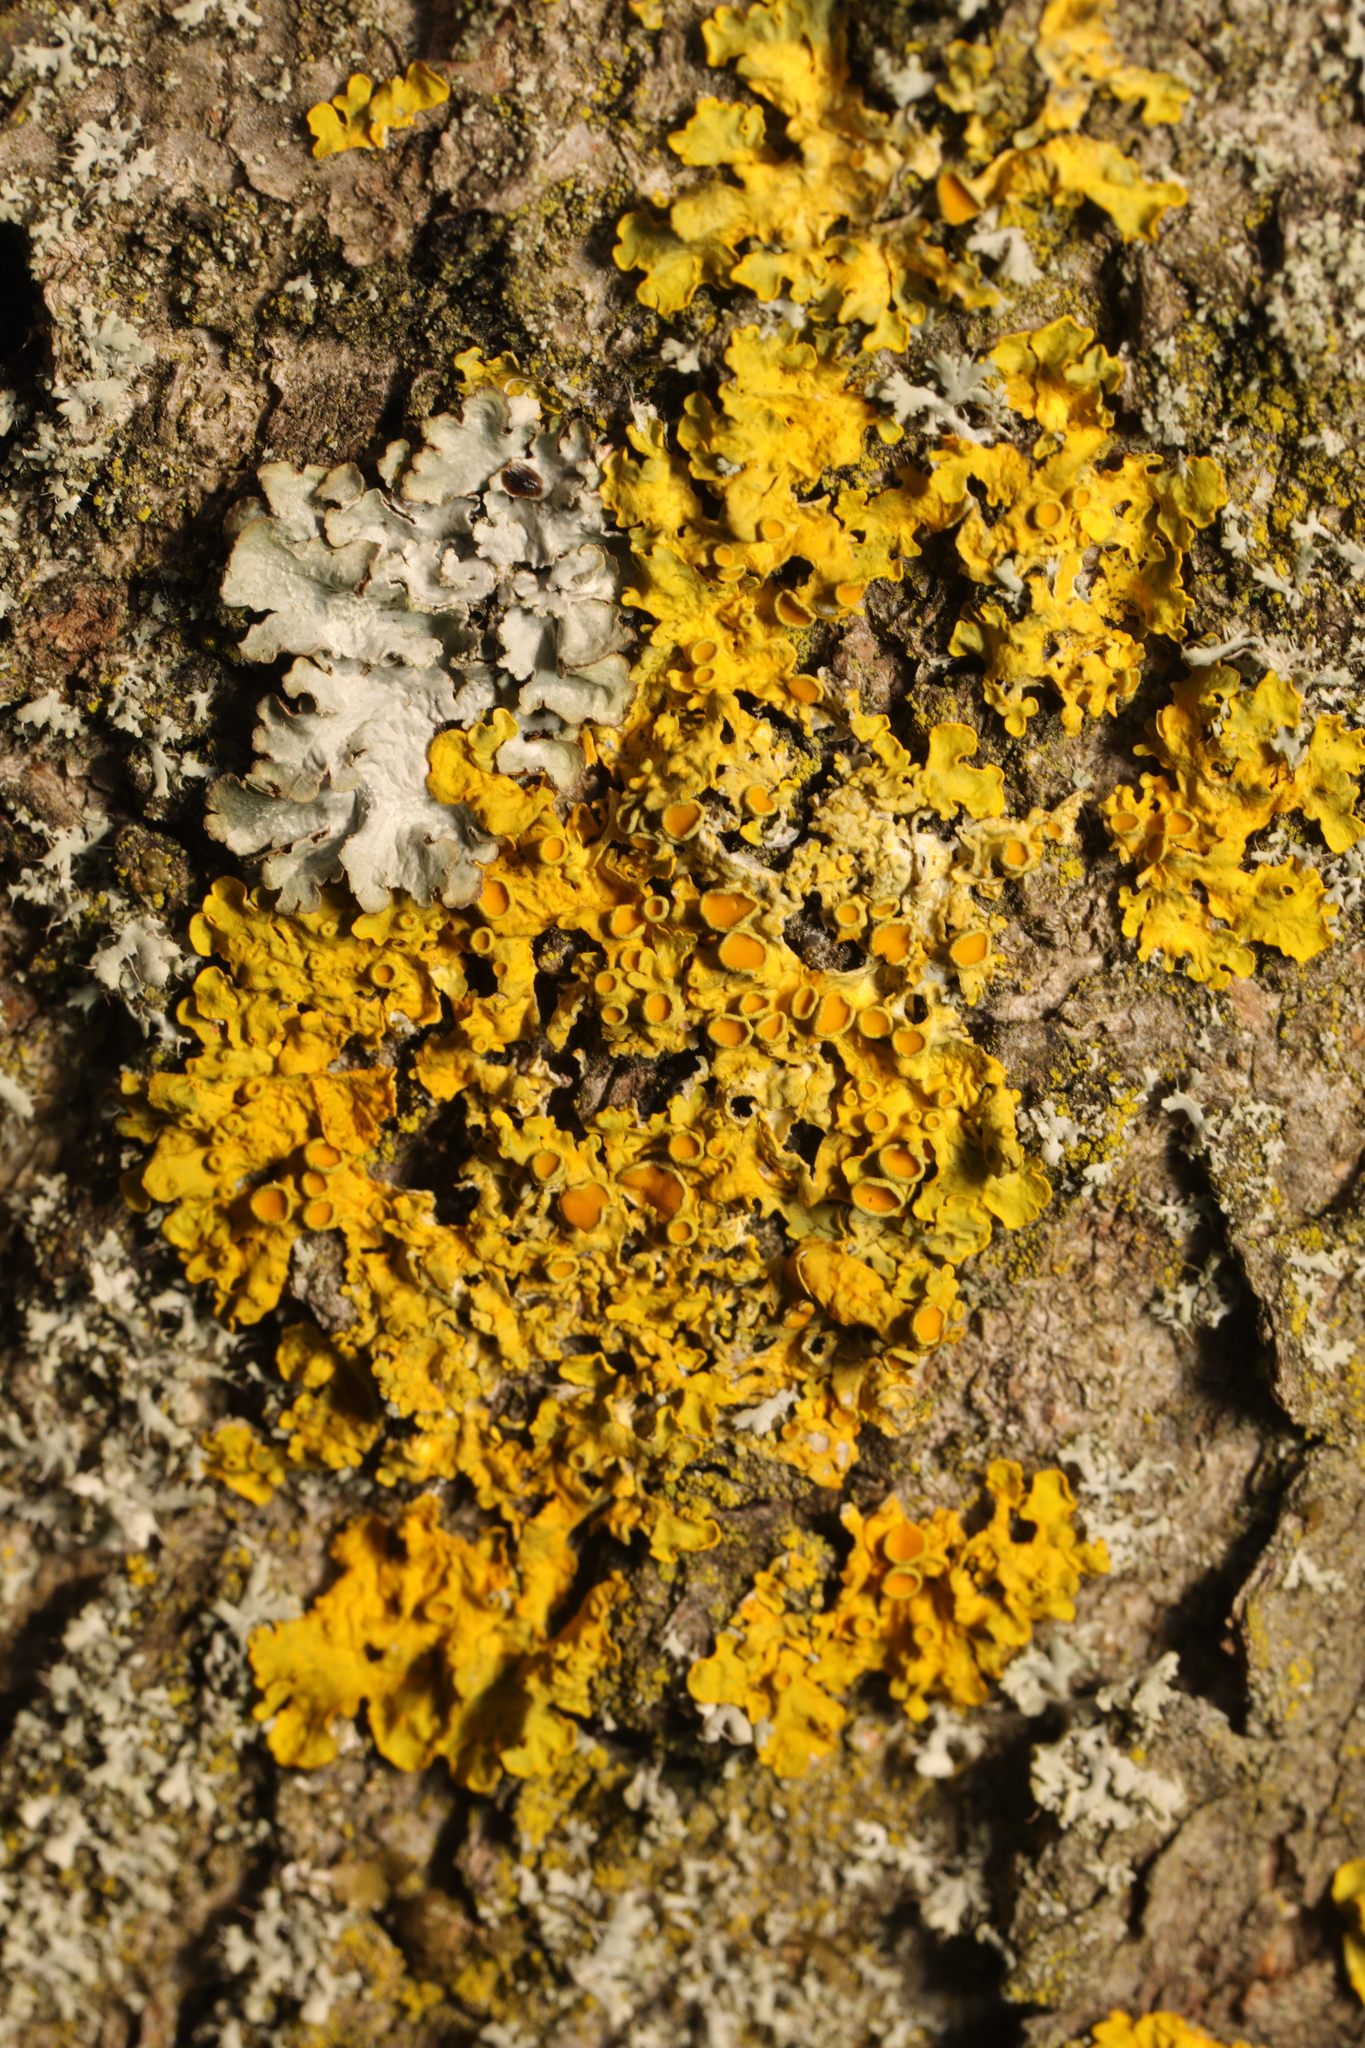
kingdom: Fungi
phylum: Ascomycota
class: Lecanoromycetes
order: Teloschistales
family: Teloschistaceae
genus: Xanthoria
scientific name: Xanthoria parietina
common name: Common orange lichen
